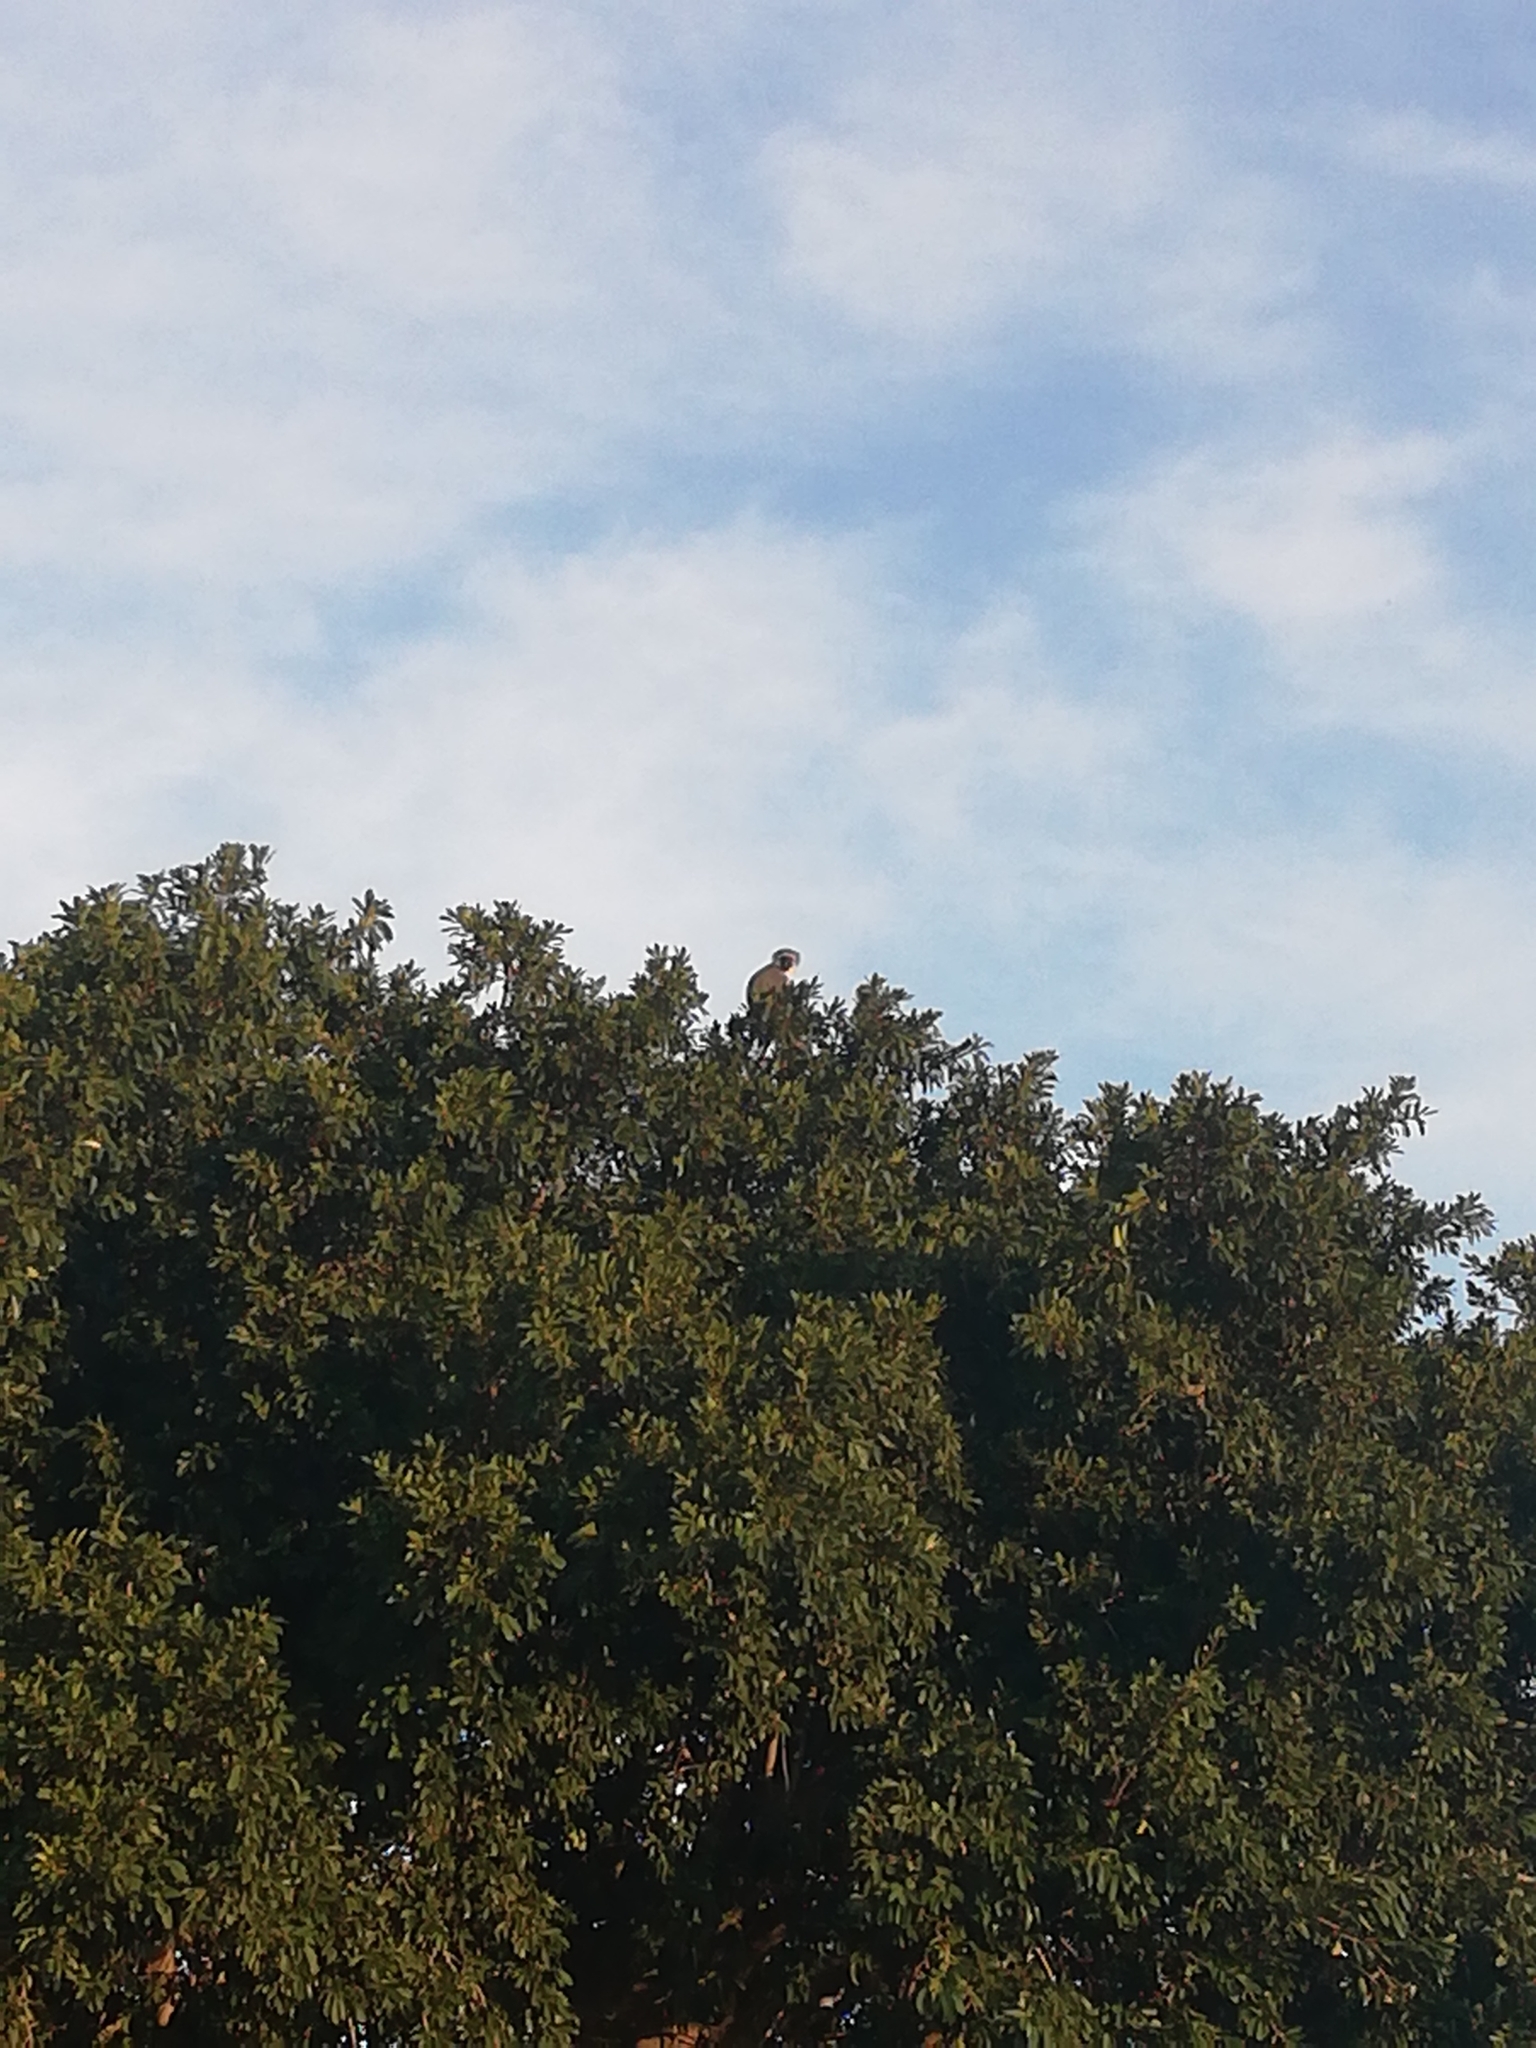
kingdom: Animalia
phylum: Chordata
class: Mammalia
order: Primates
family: Cercopithecidae
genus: Chlorocebus
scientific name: Chlorocebus pygerythrus
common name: Vervet monkey
